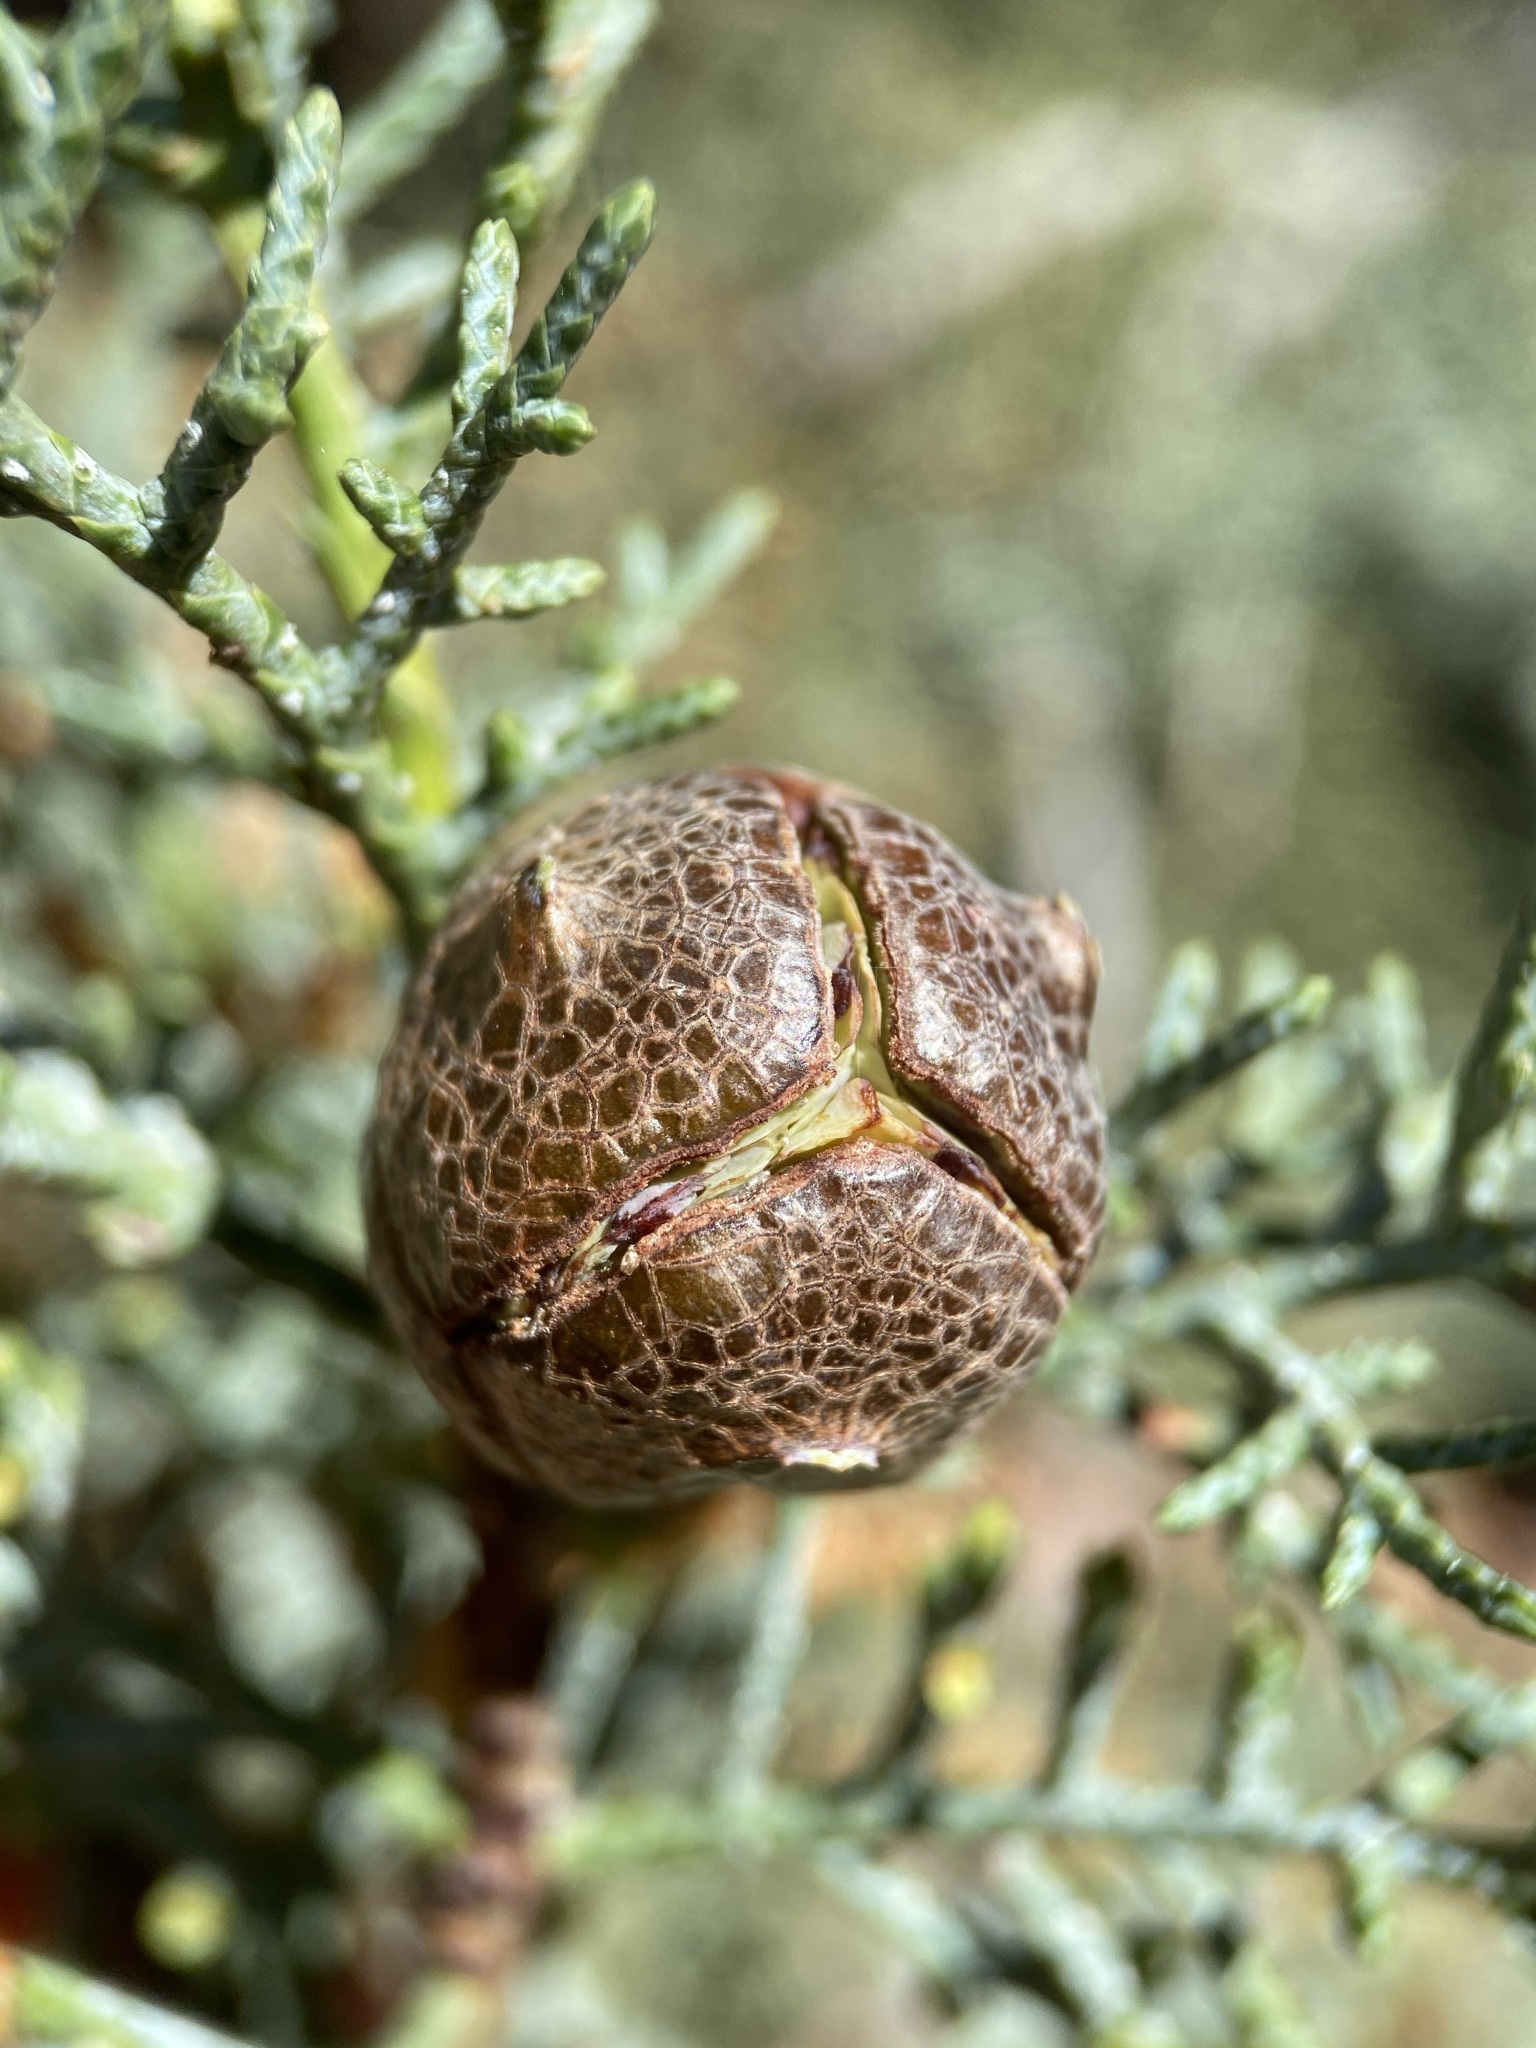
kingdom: Plantae
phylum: Tracheophyta
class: Pinopsida
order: Pinales
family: Cupressaceae
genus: Cupressus
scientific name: Cupressus arizonica
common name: Arizona cypress
